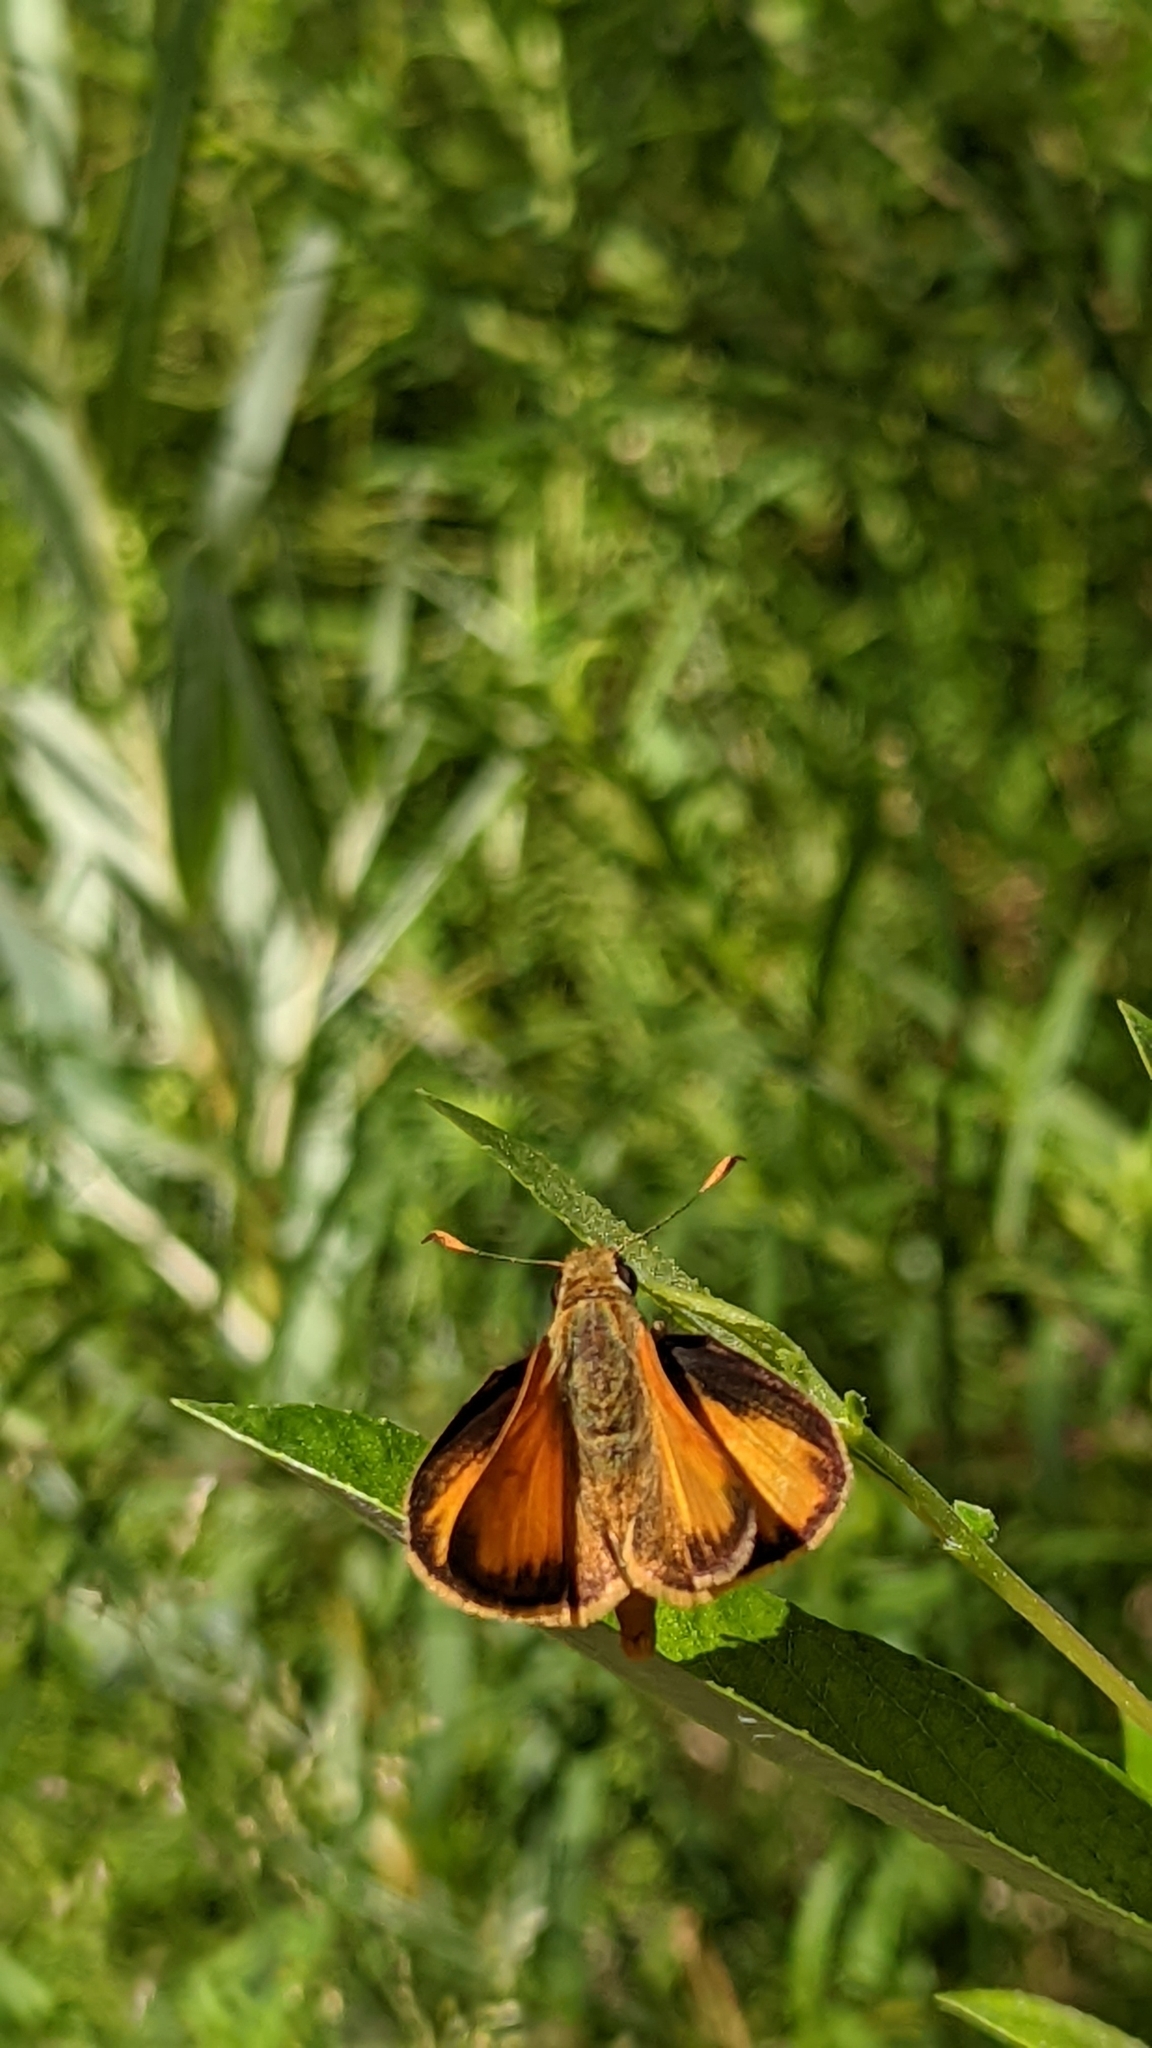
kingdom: Animalia
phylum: Arthropoda
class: Insecta
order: Lepidoptera
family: Hesperiidae
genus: Lon
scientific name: Lon taxiles
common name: Taxiles skipper
